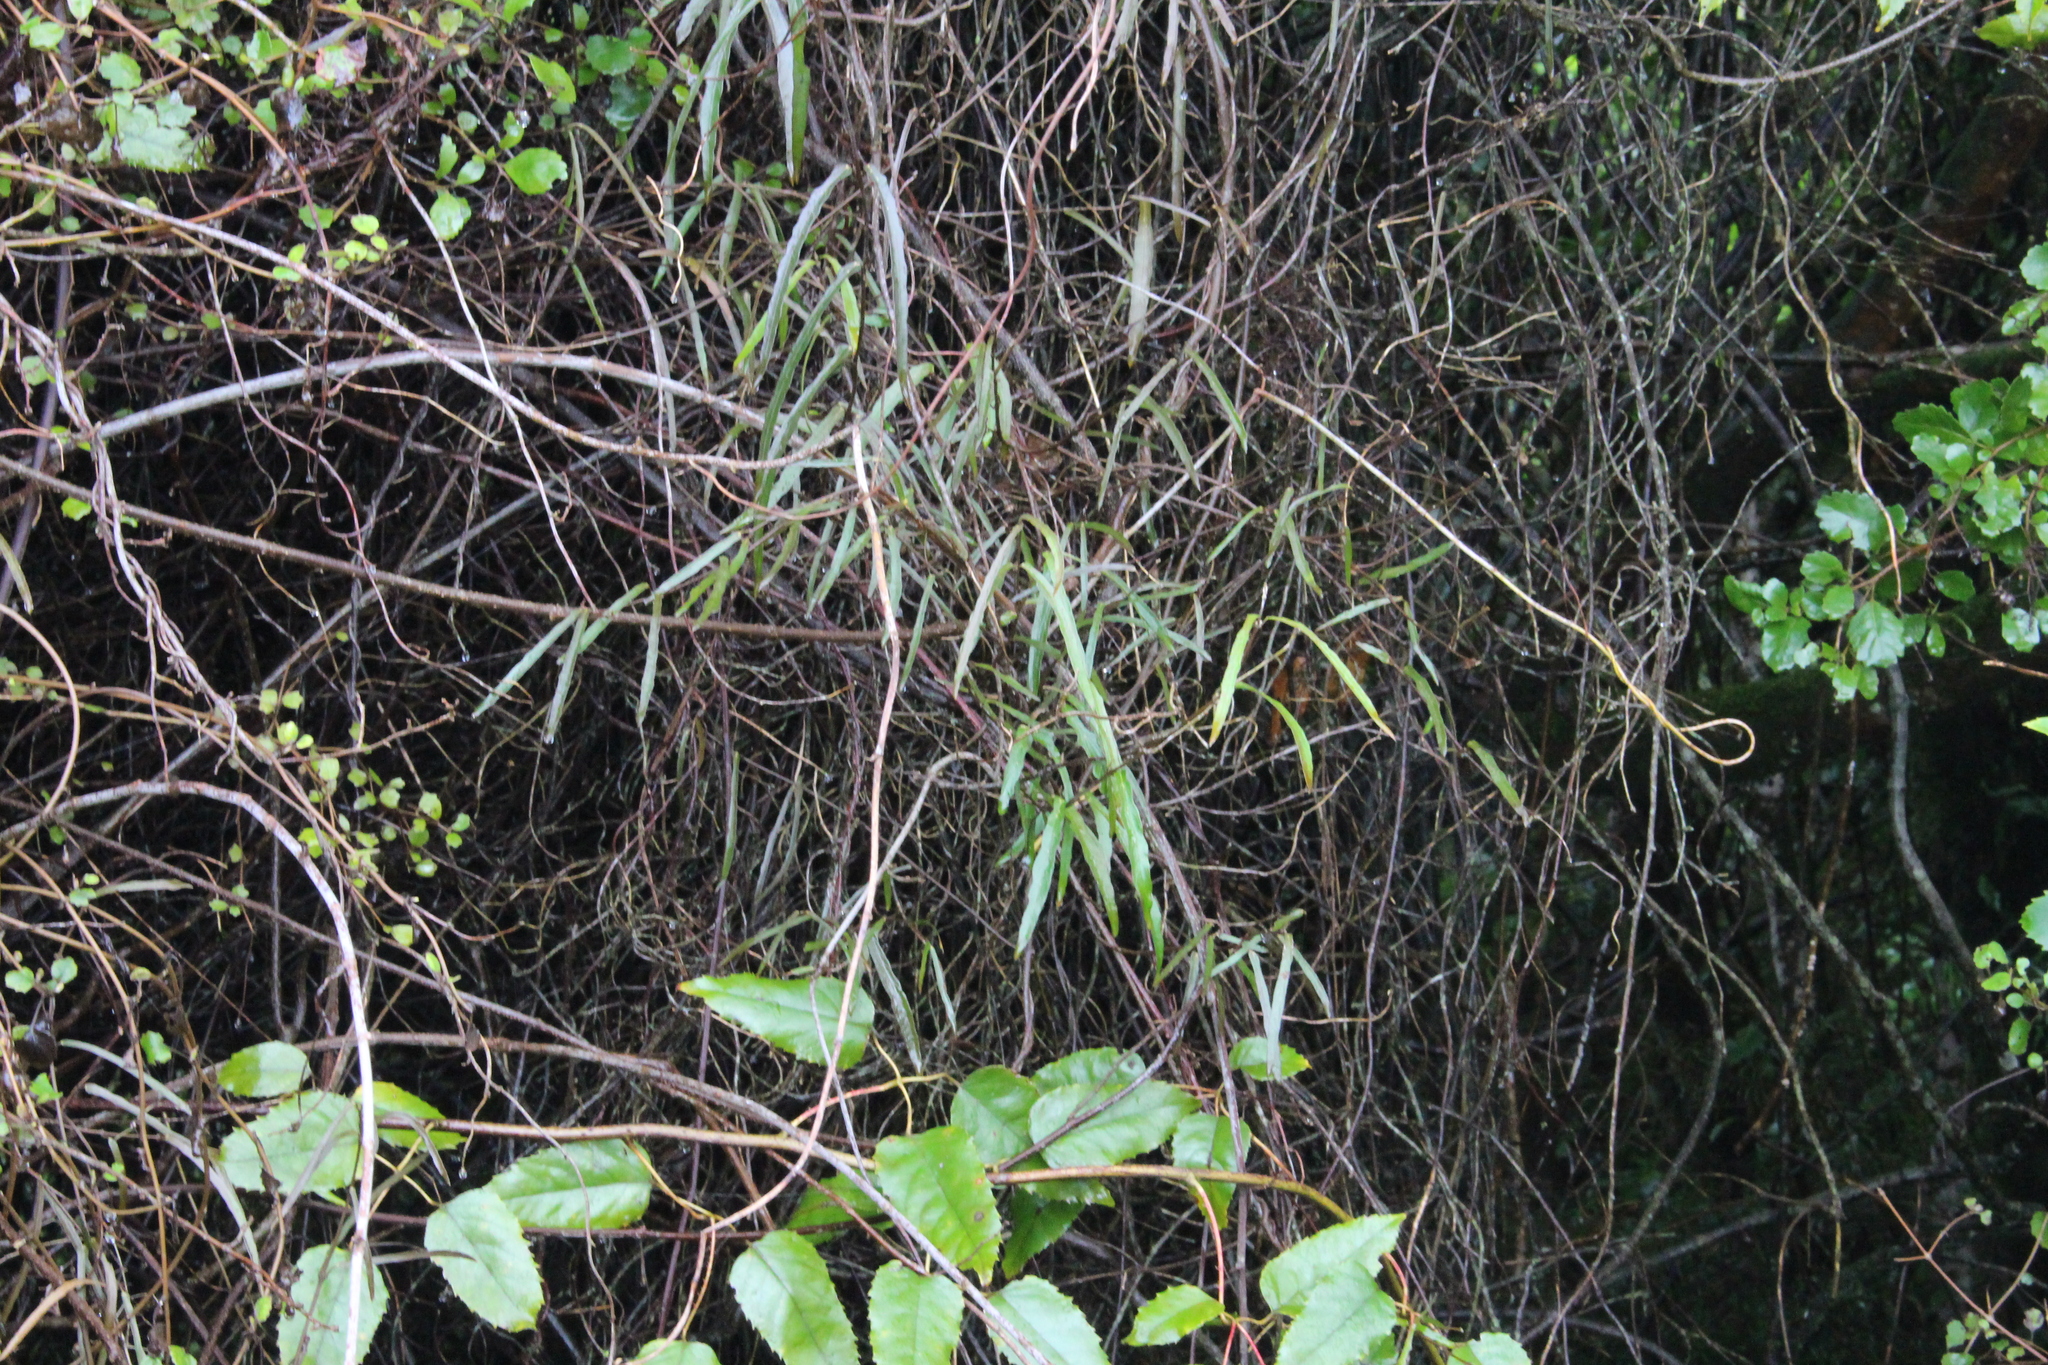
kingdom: Plantae
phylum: Tracheophyta
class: Magnoliopsida
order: Gentianales
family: Apocynaceae
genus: Parsonsia
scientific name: Parsonsia capsularis
